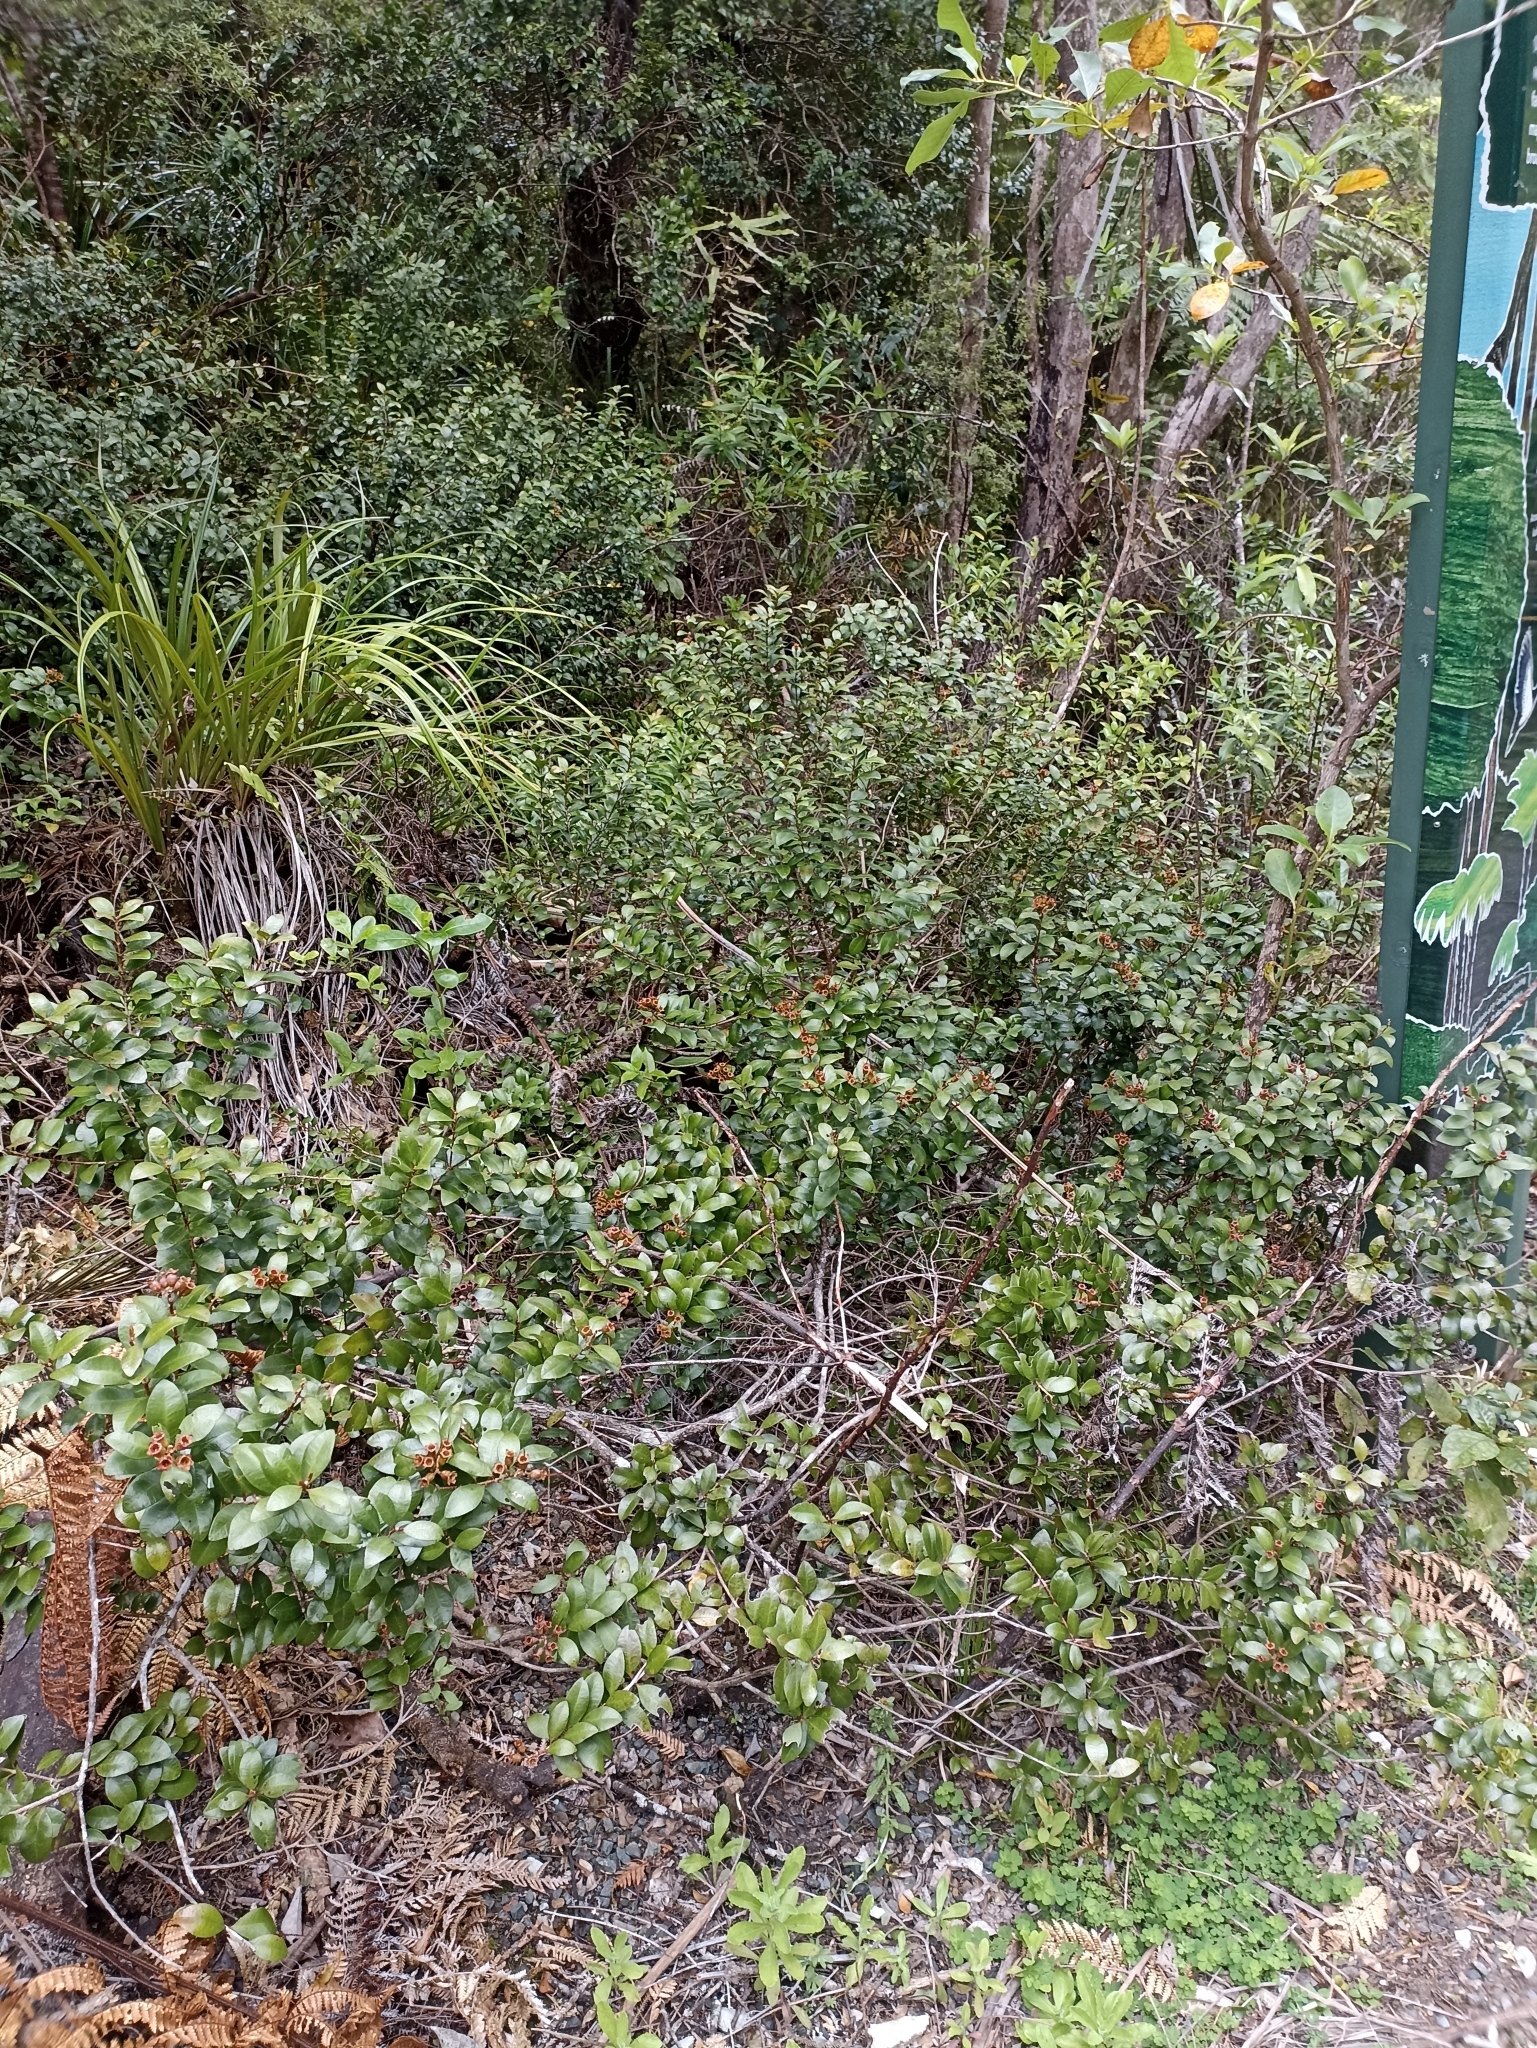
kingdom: Plantae
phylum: Tracheophyta
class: Magnoliopsida
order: Myrtales
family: Myrtaceae
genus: Metrosideros
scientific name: Metrosideros fulgens
